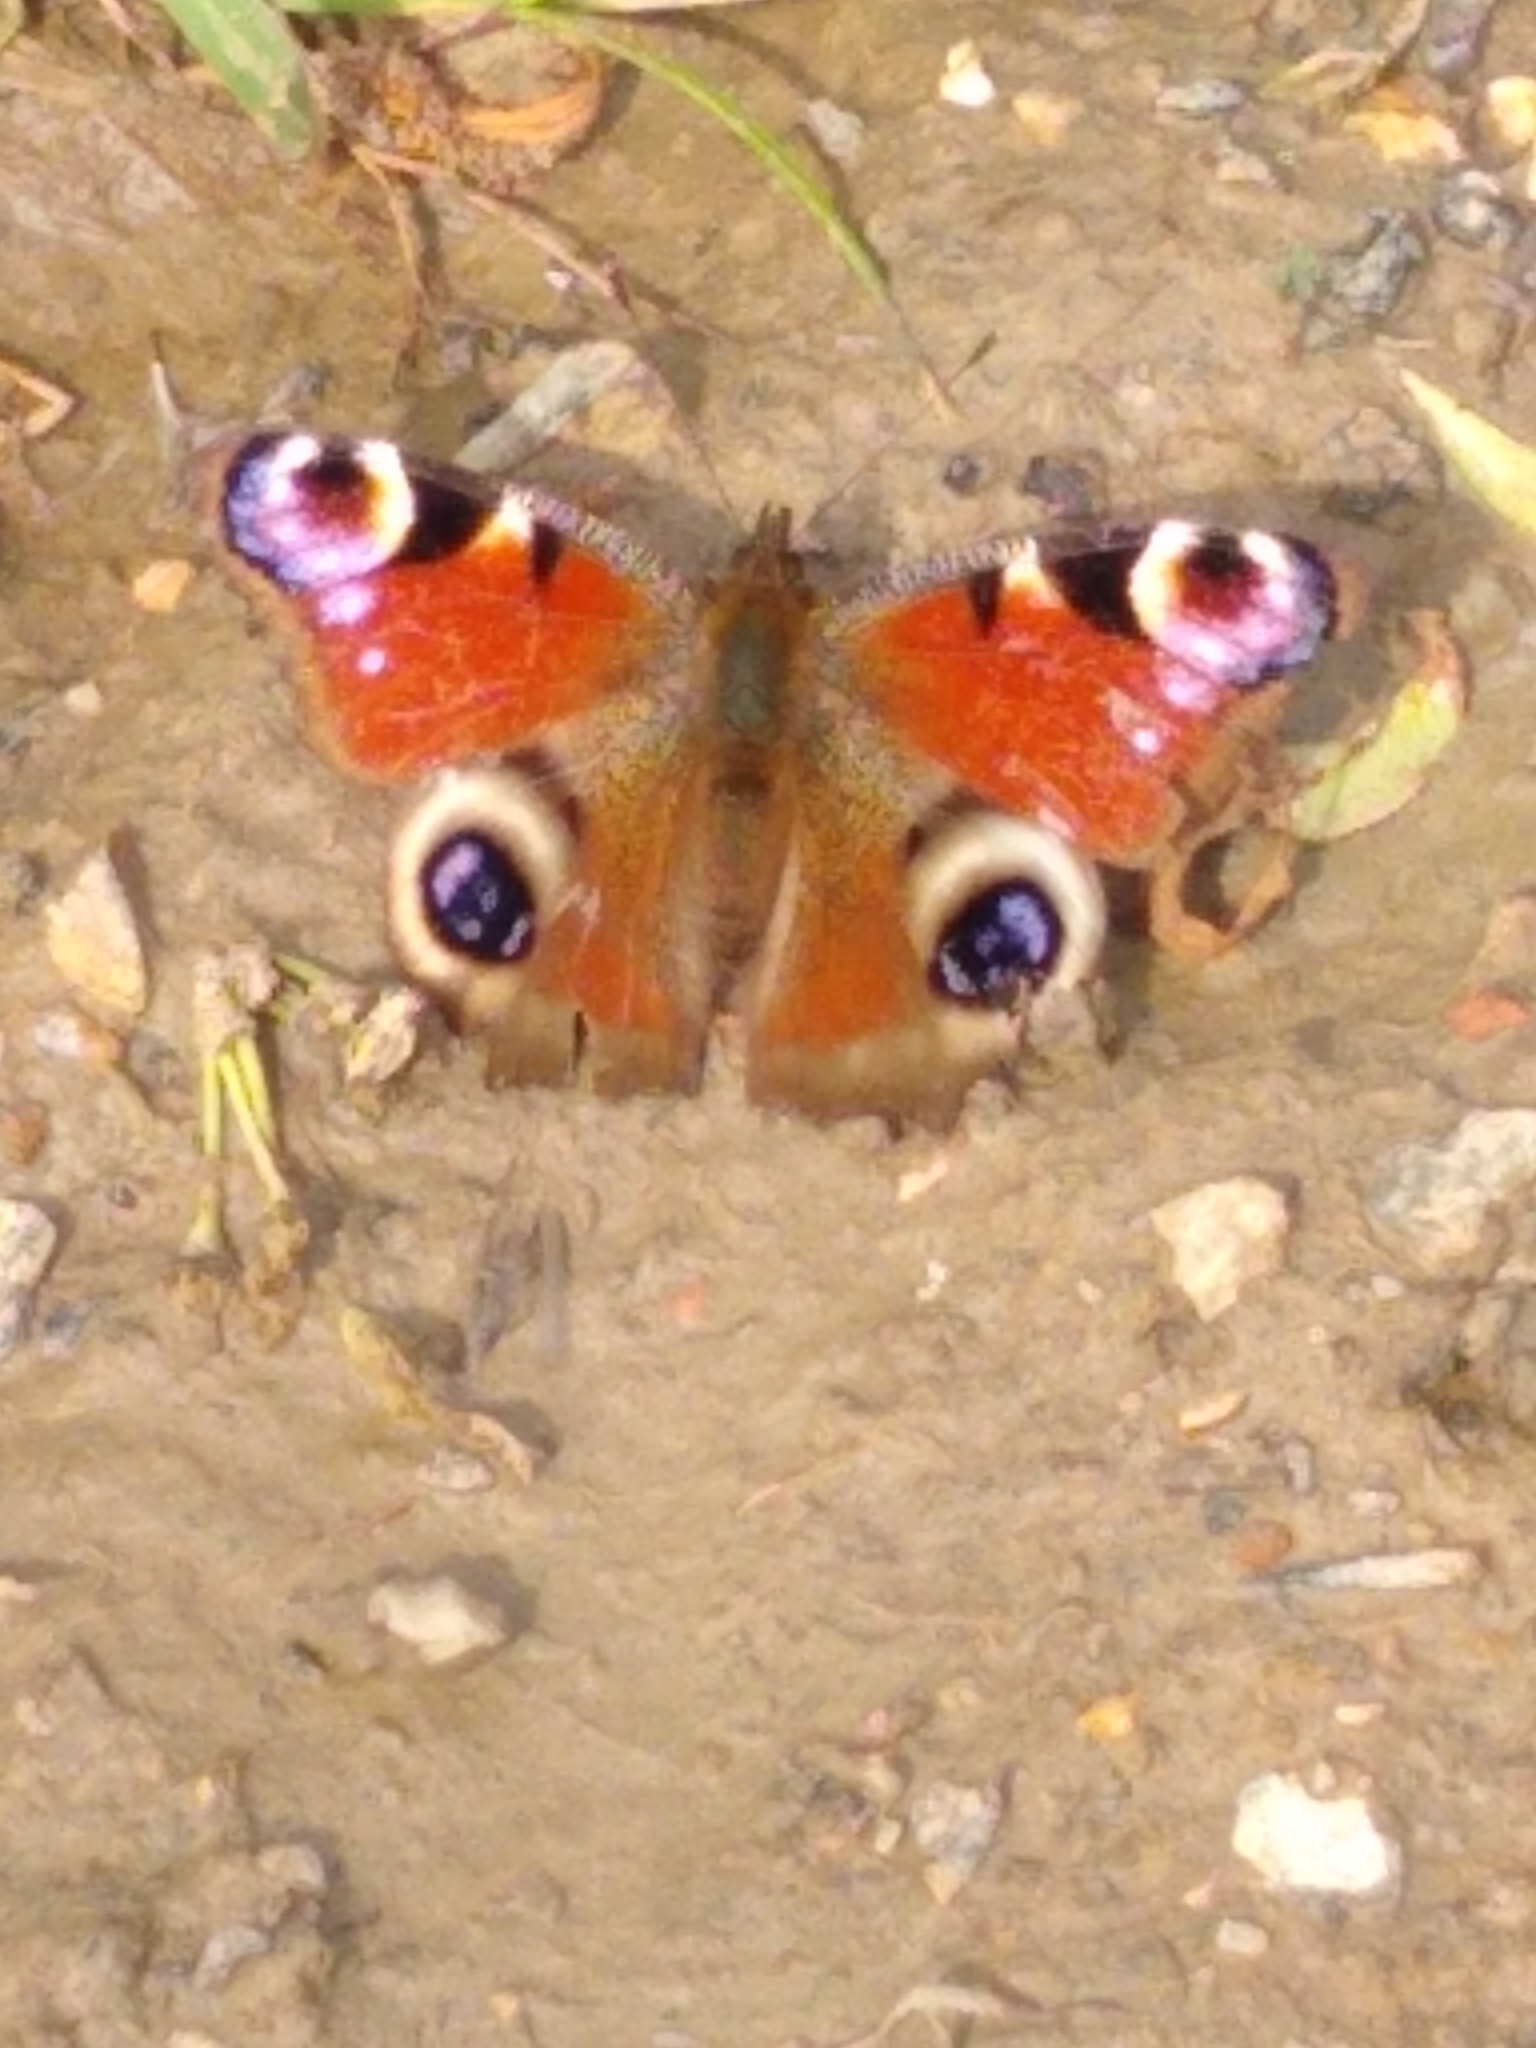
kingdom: Animalia
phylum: Arthropoda
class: Insecta
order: Lepidoptera
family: Nymphalidae
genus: Aglais
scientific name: Aglais io
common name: Peacock
